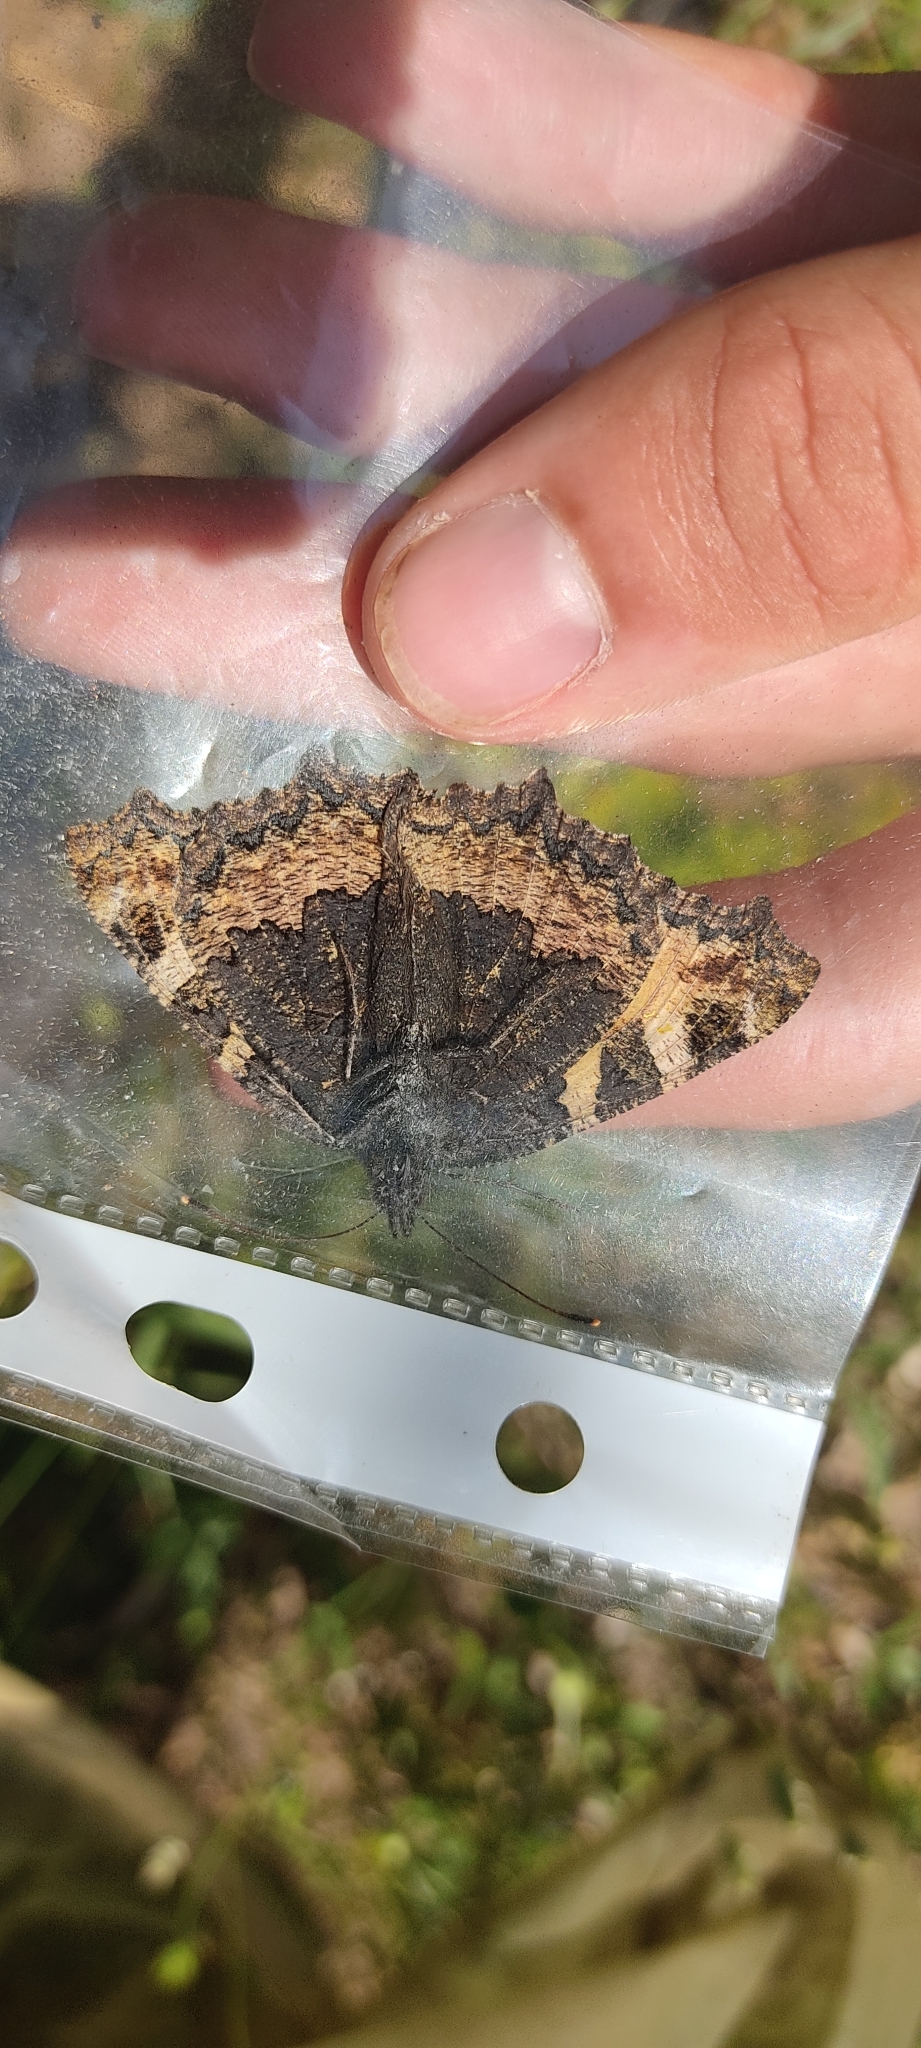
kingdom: Animalia
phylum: Arthropoda
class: Insecta
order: Lepidoptera
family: Nymphalidae
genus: Aglais
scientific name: Aglais urticae
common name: Small tortoiseshell
